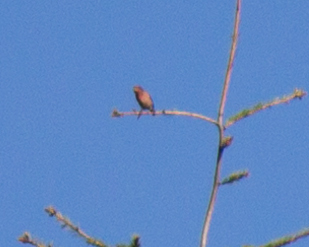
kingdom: Animalia
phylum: Chordata
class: Aves
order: Passeriformes
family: Fringillidae
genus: Haemorhous
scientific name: Haemorhous purpureus
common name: Purple finch
